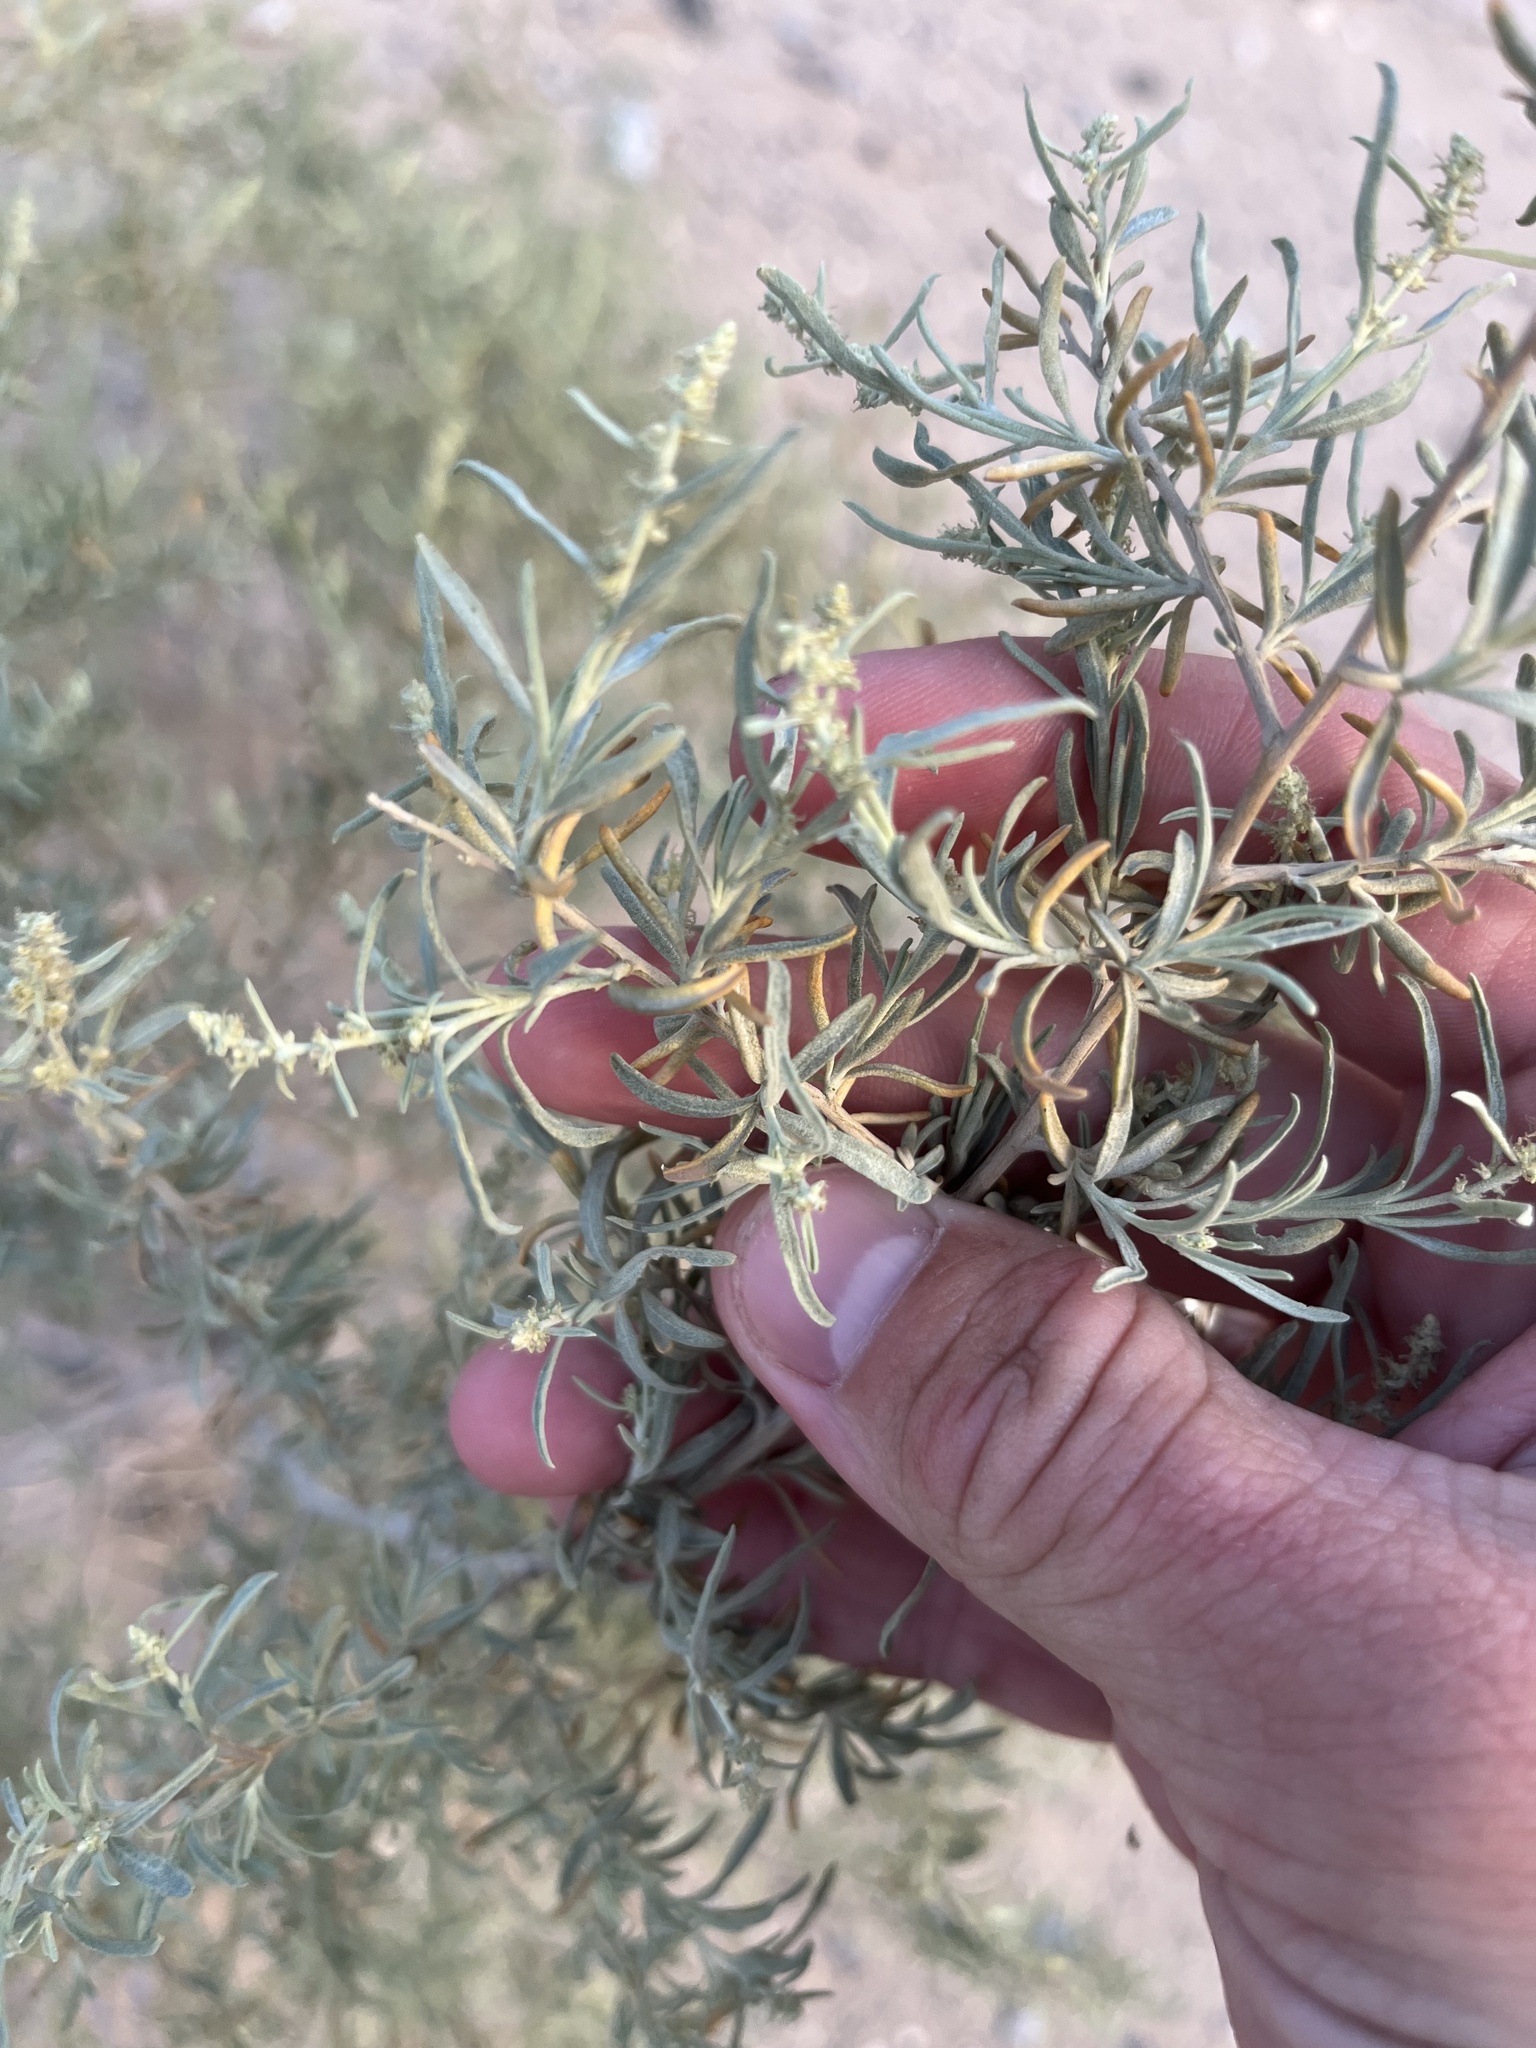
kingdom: Plantae
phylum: Tracheophyta
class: Magnoliopsida
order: Caryophyllales
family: Amaranthaceae
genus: Atriplex
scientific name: Atriplex canescens
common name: Four-wing saltbush
